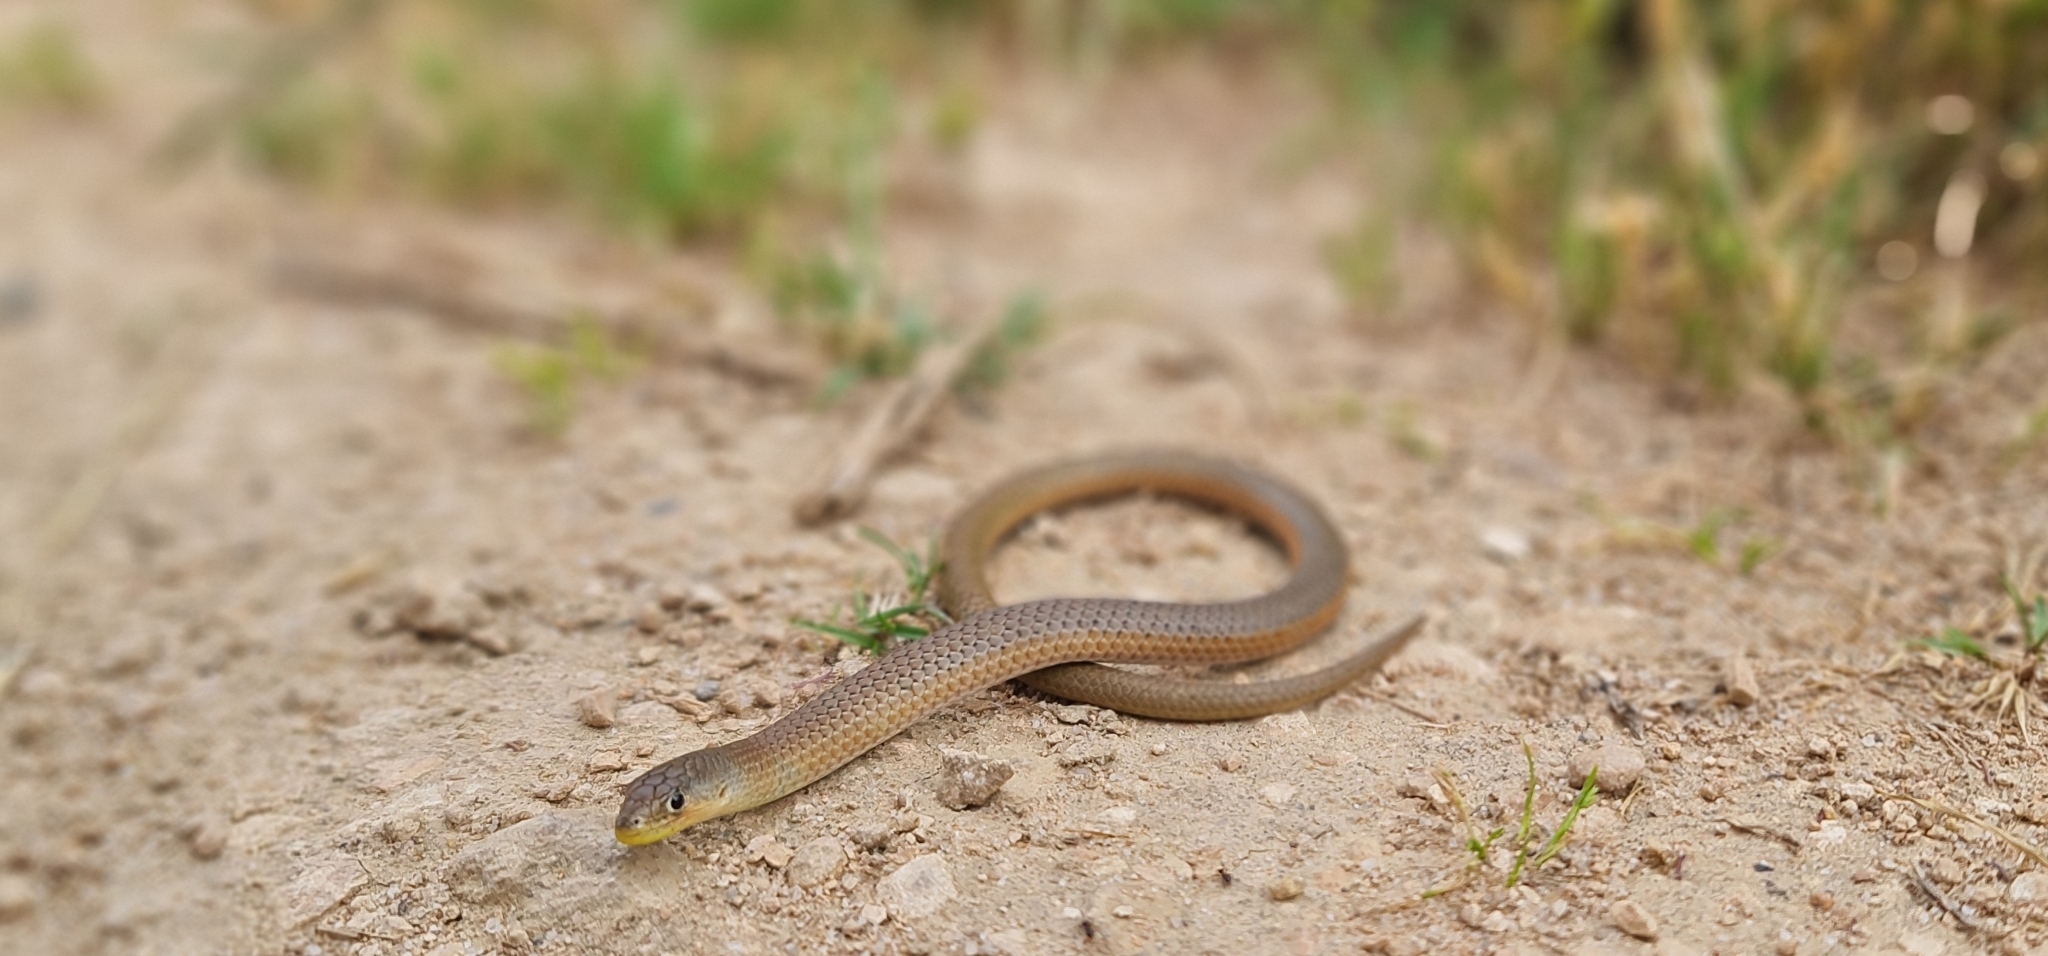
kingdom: Animalia
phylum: Chordata
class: Squamata
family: Pygopodidae
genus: Delma
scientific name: Delma inornata
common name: Patternless delma
